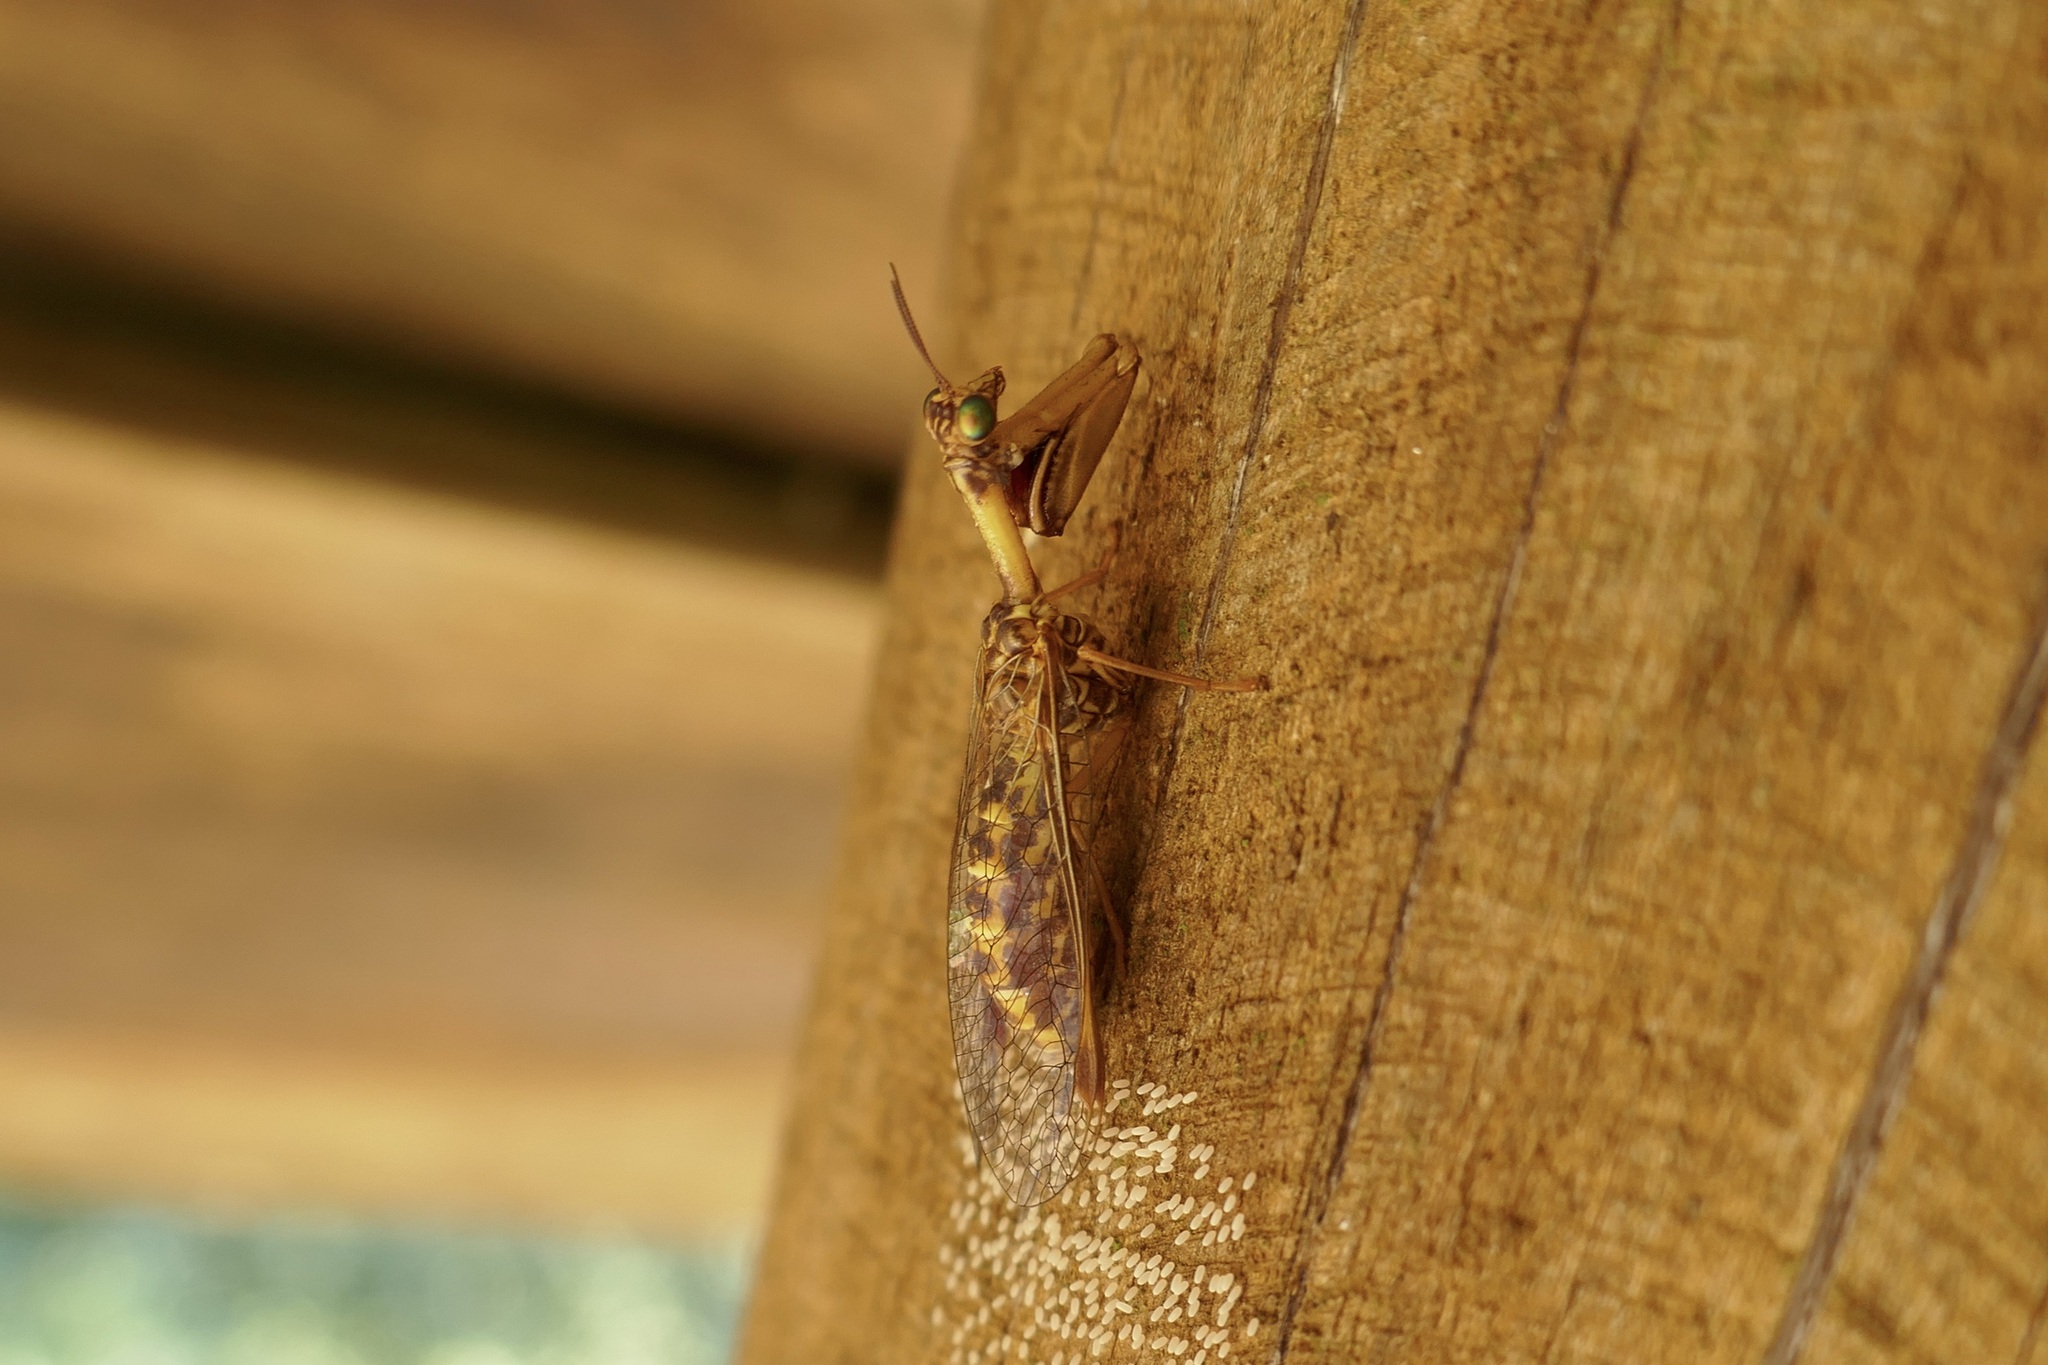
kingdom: Animalia
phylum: Arthropoda
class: Insecta
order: Neuroptera
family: Mantispidae
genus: Mantispa
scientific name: Mantispa styriaca
